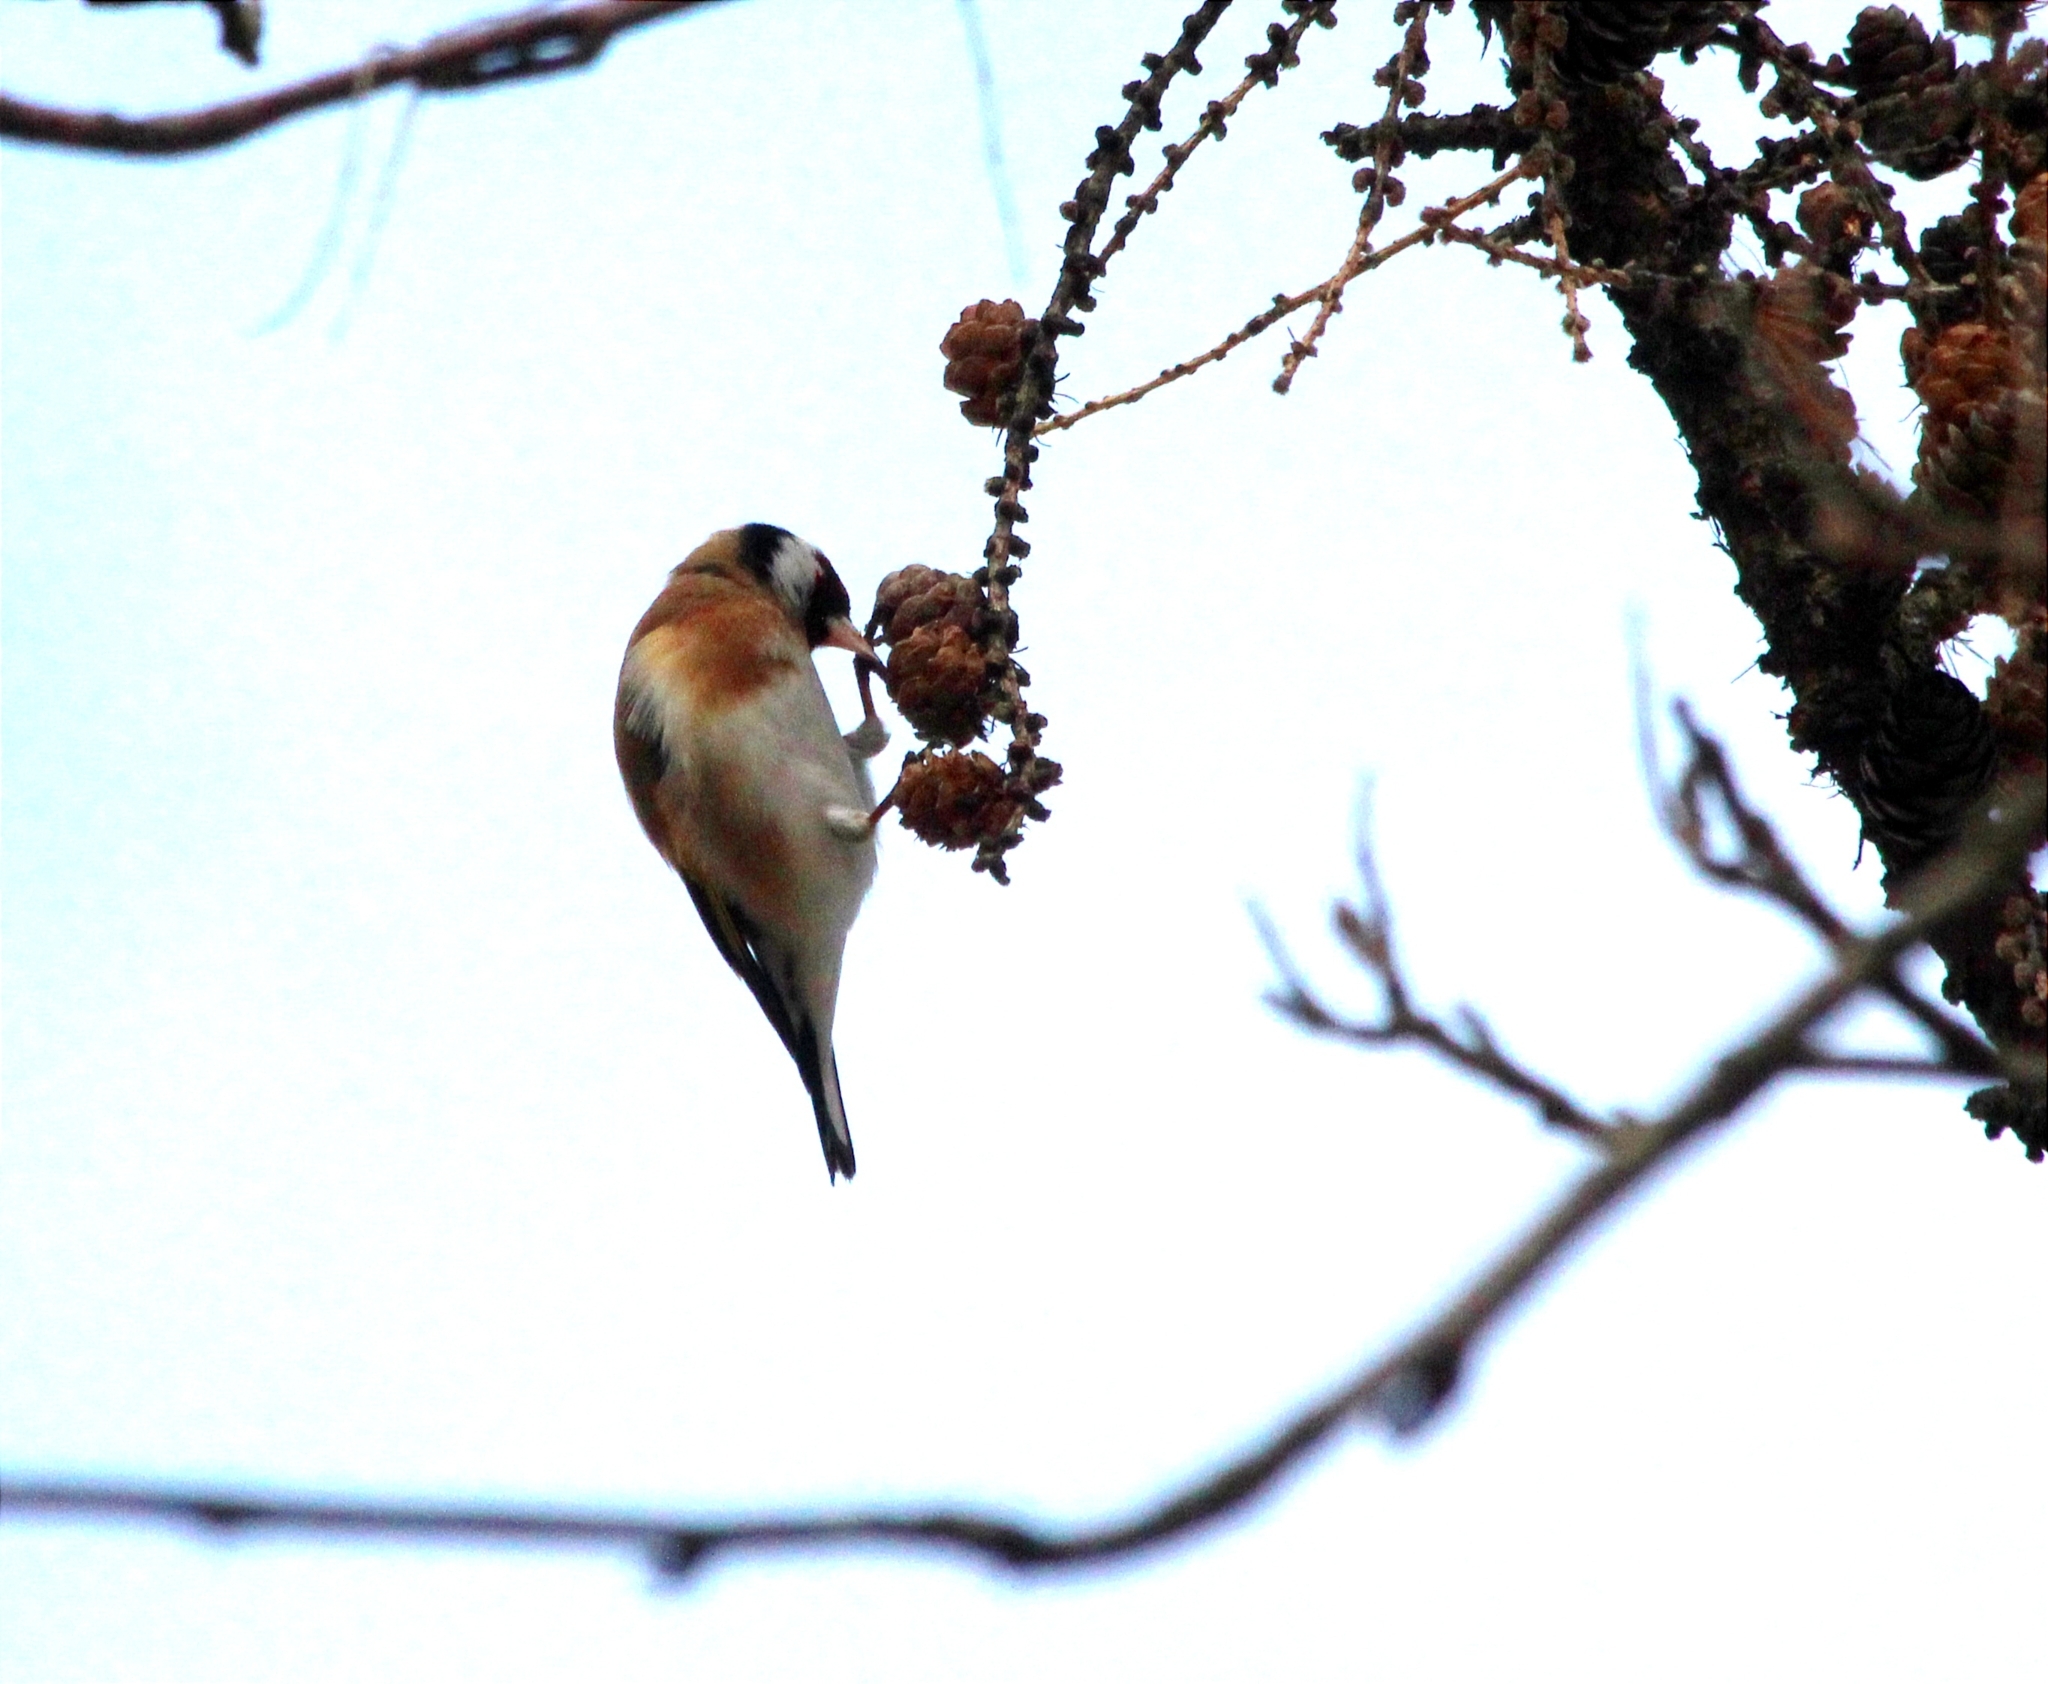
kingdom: Animalia
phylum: Chordata
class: Aves
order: Passeriformes
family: Fringillidae
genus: Carduelis
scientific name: Carduelis carduelis
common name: European goldfinch
